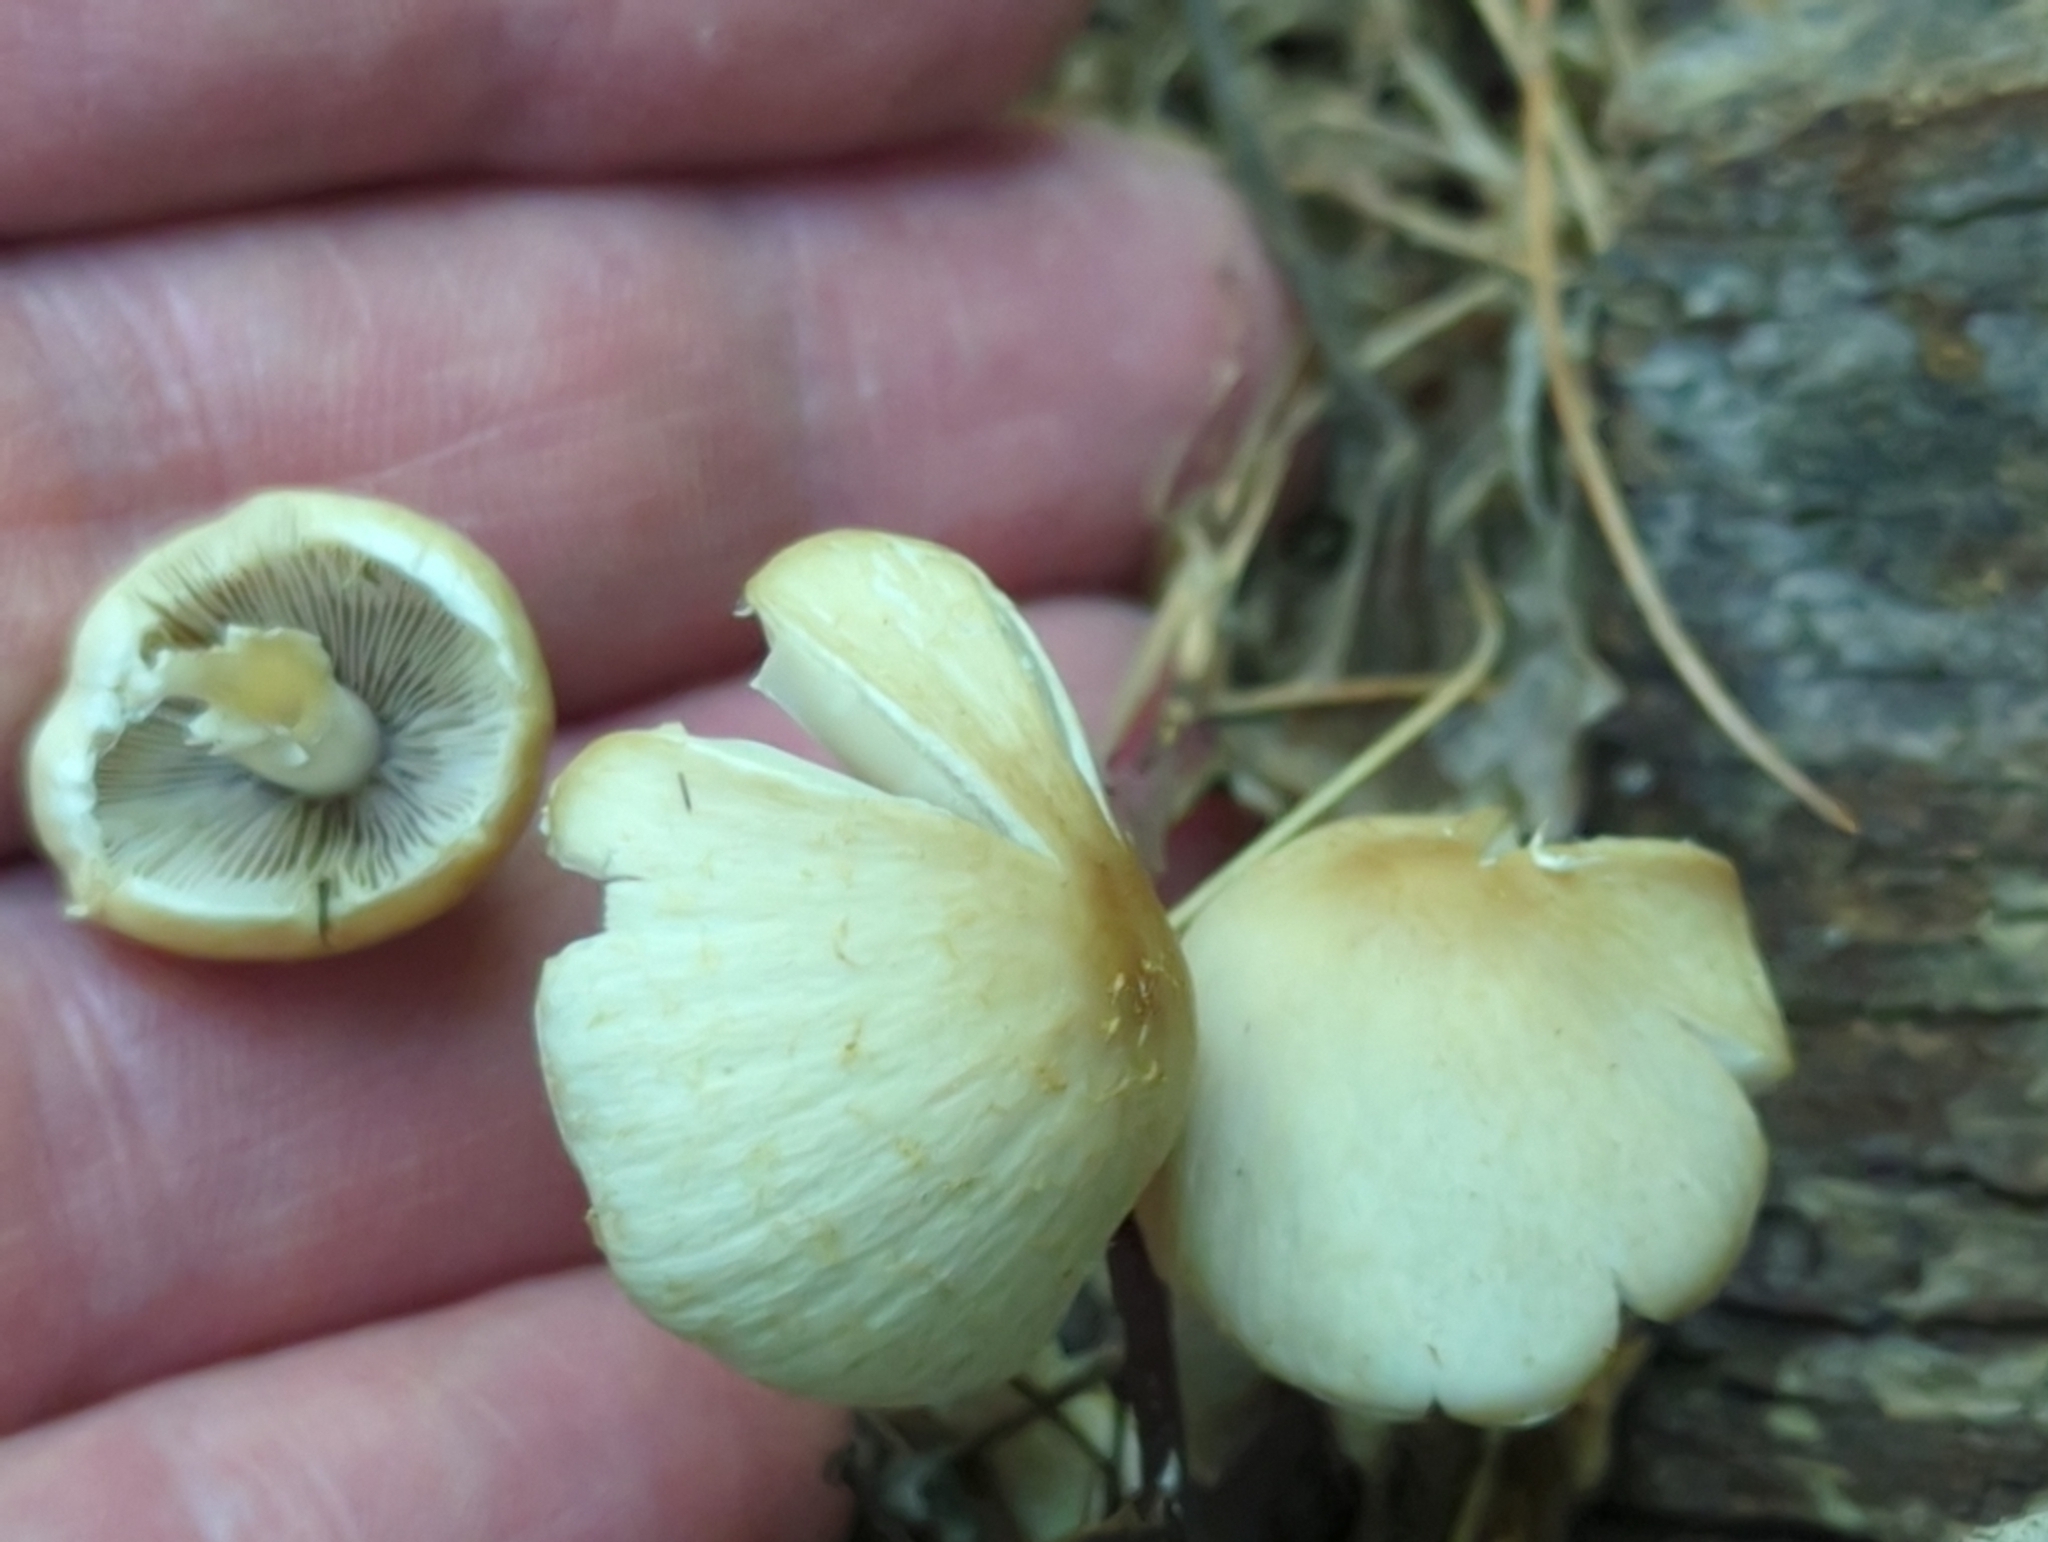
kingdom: Fungi
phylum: Basidiomycota
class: Agaricomycetes
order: Agaricales
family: Psathyrellaceae
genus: Candolleomyces
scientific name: Candolleomyces candolleanus
